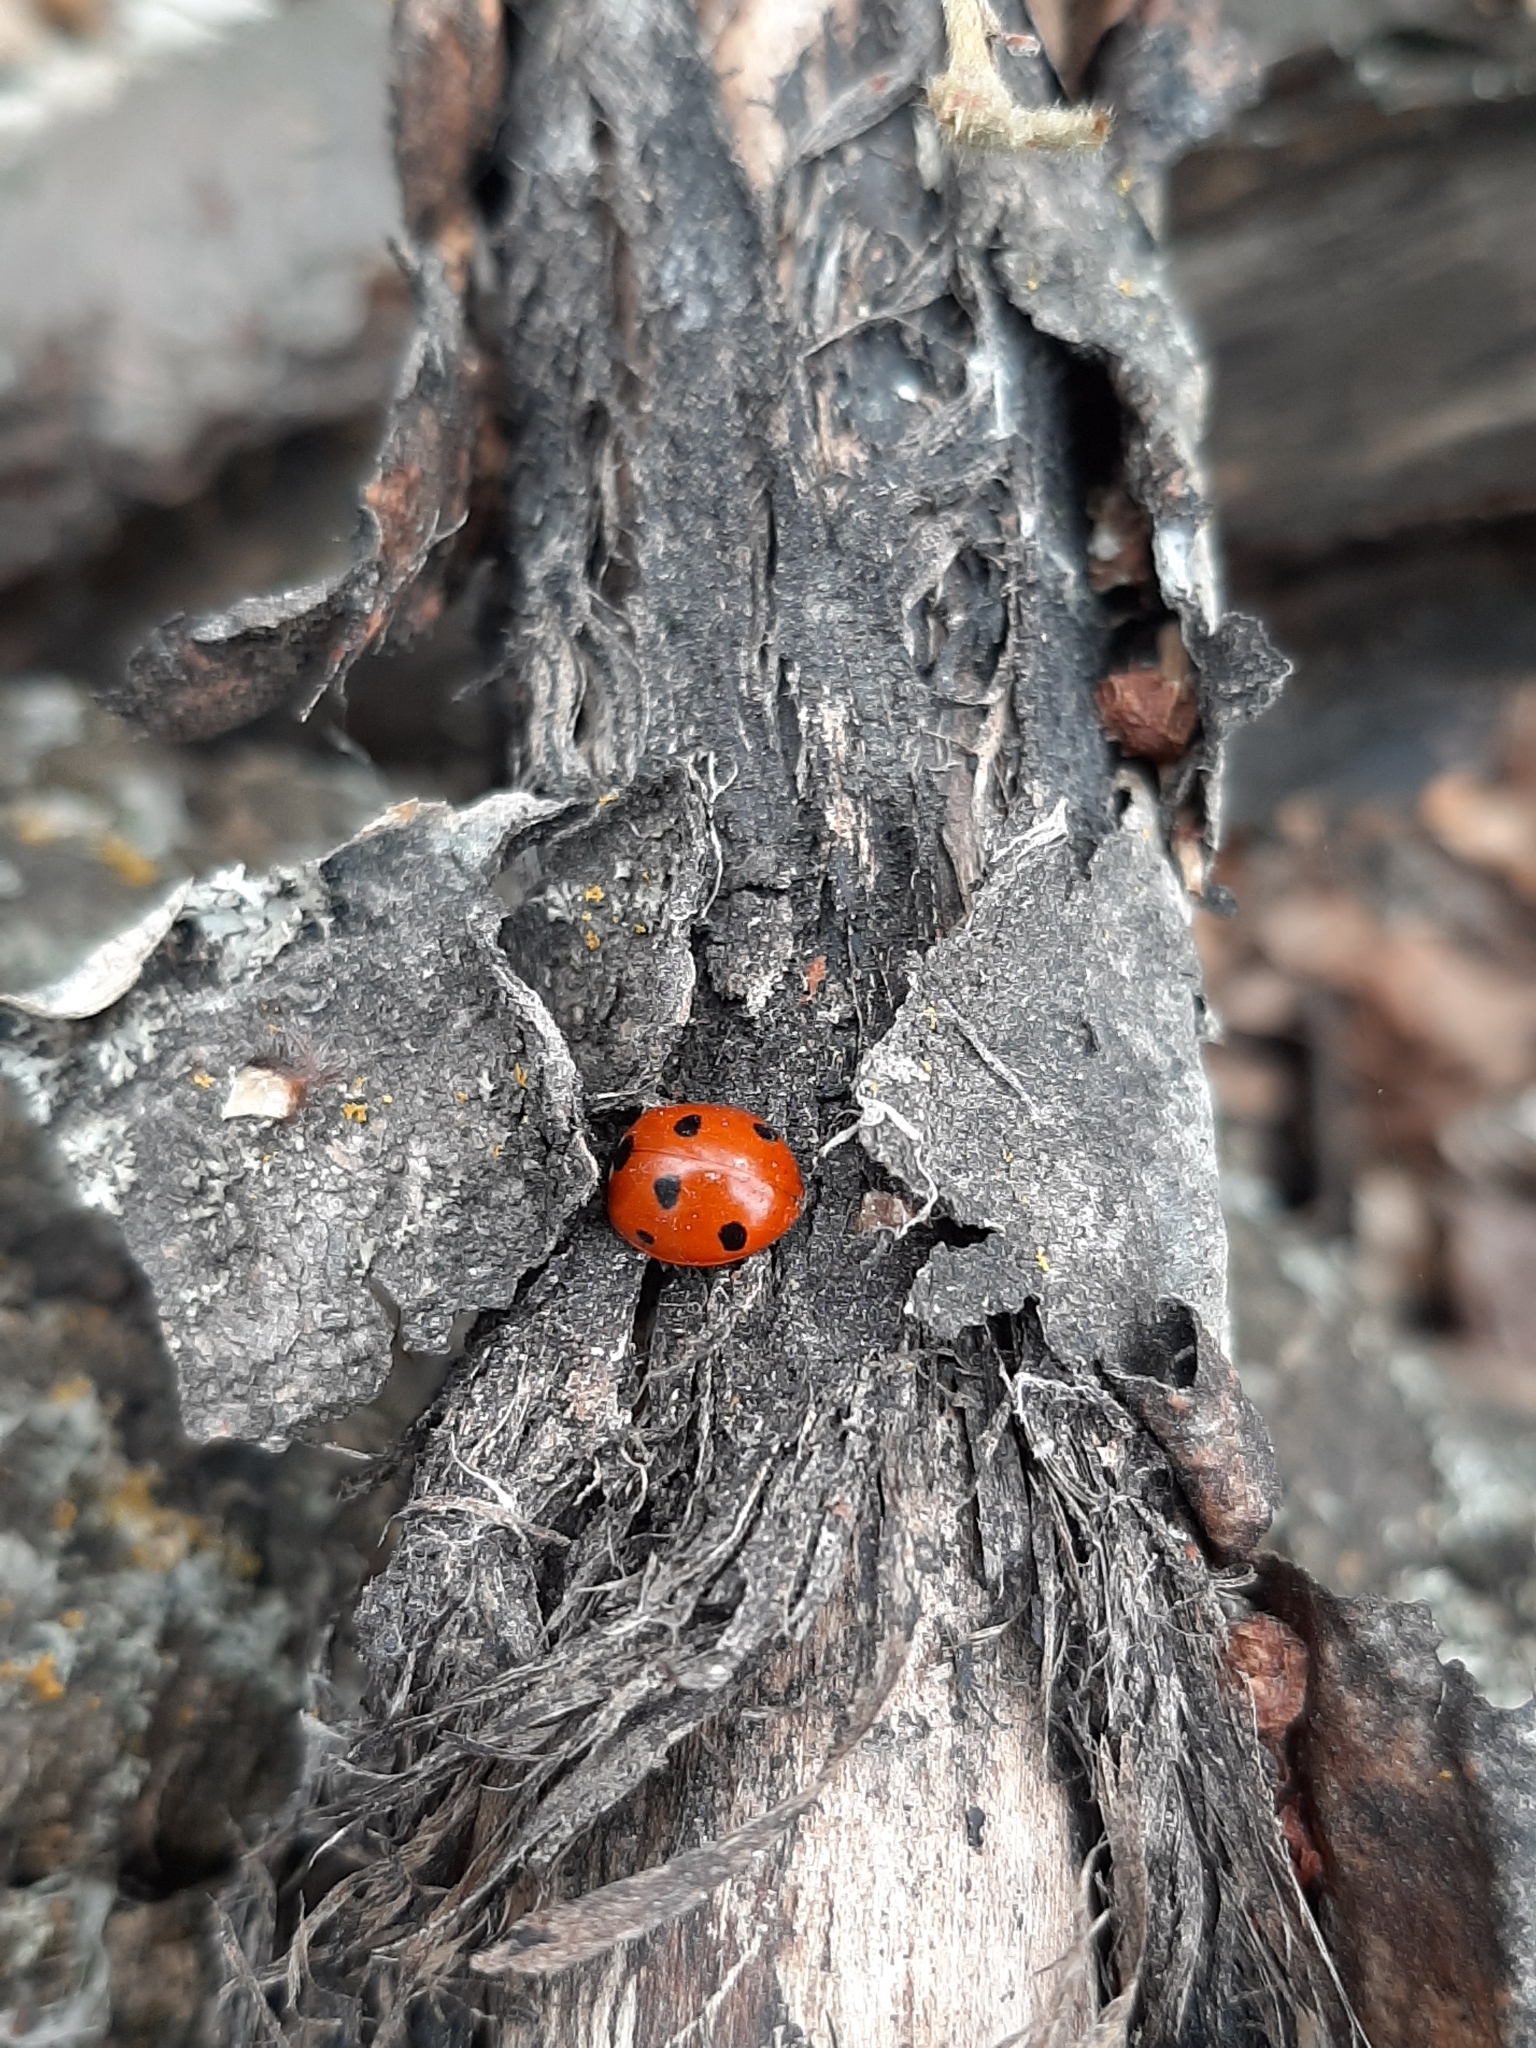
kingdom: Animalia
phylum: Arthropoda
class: Insecta
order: Coleoptera
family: Coccinellidae
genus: Coccinella
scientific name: Coccinella septempunctata
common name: Sevenspotted lady beetle
